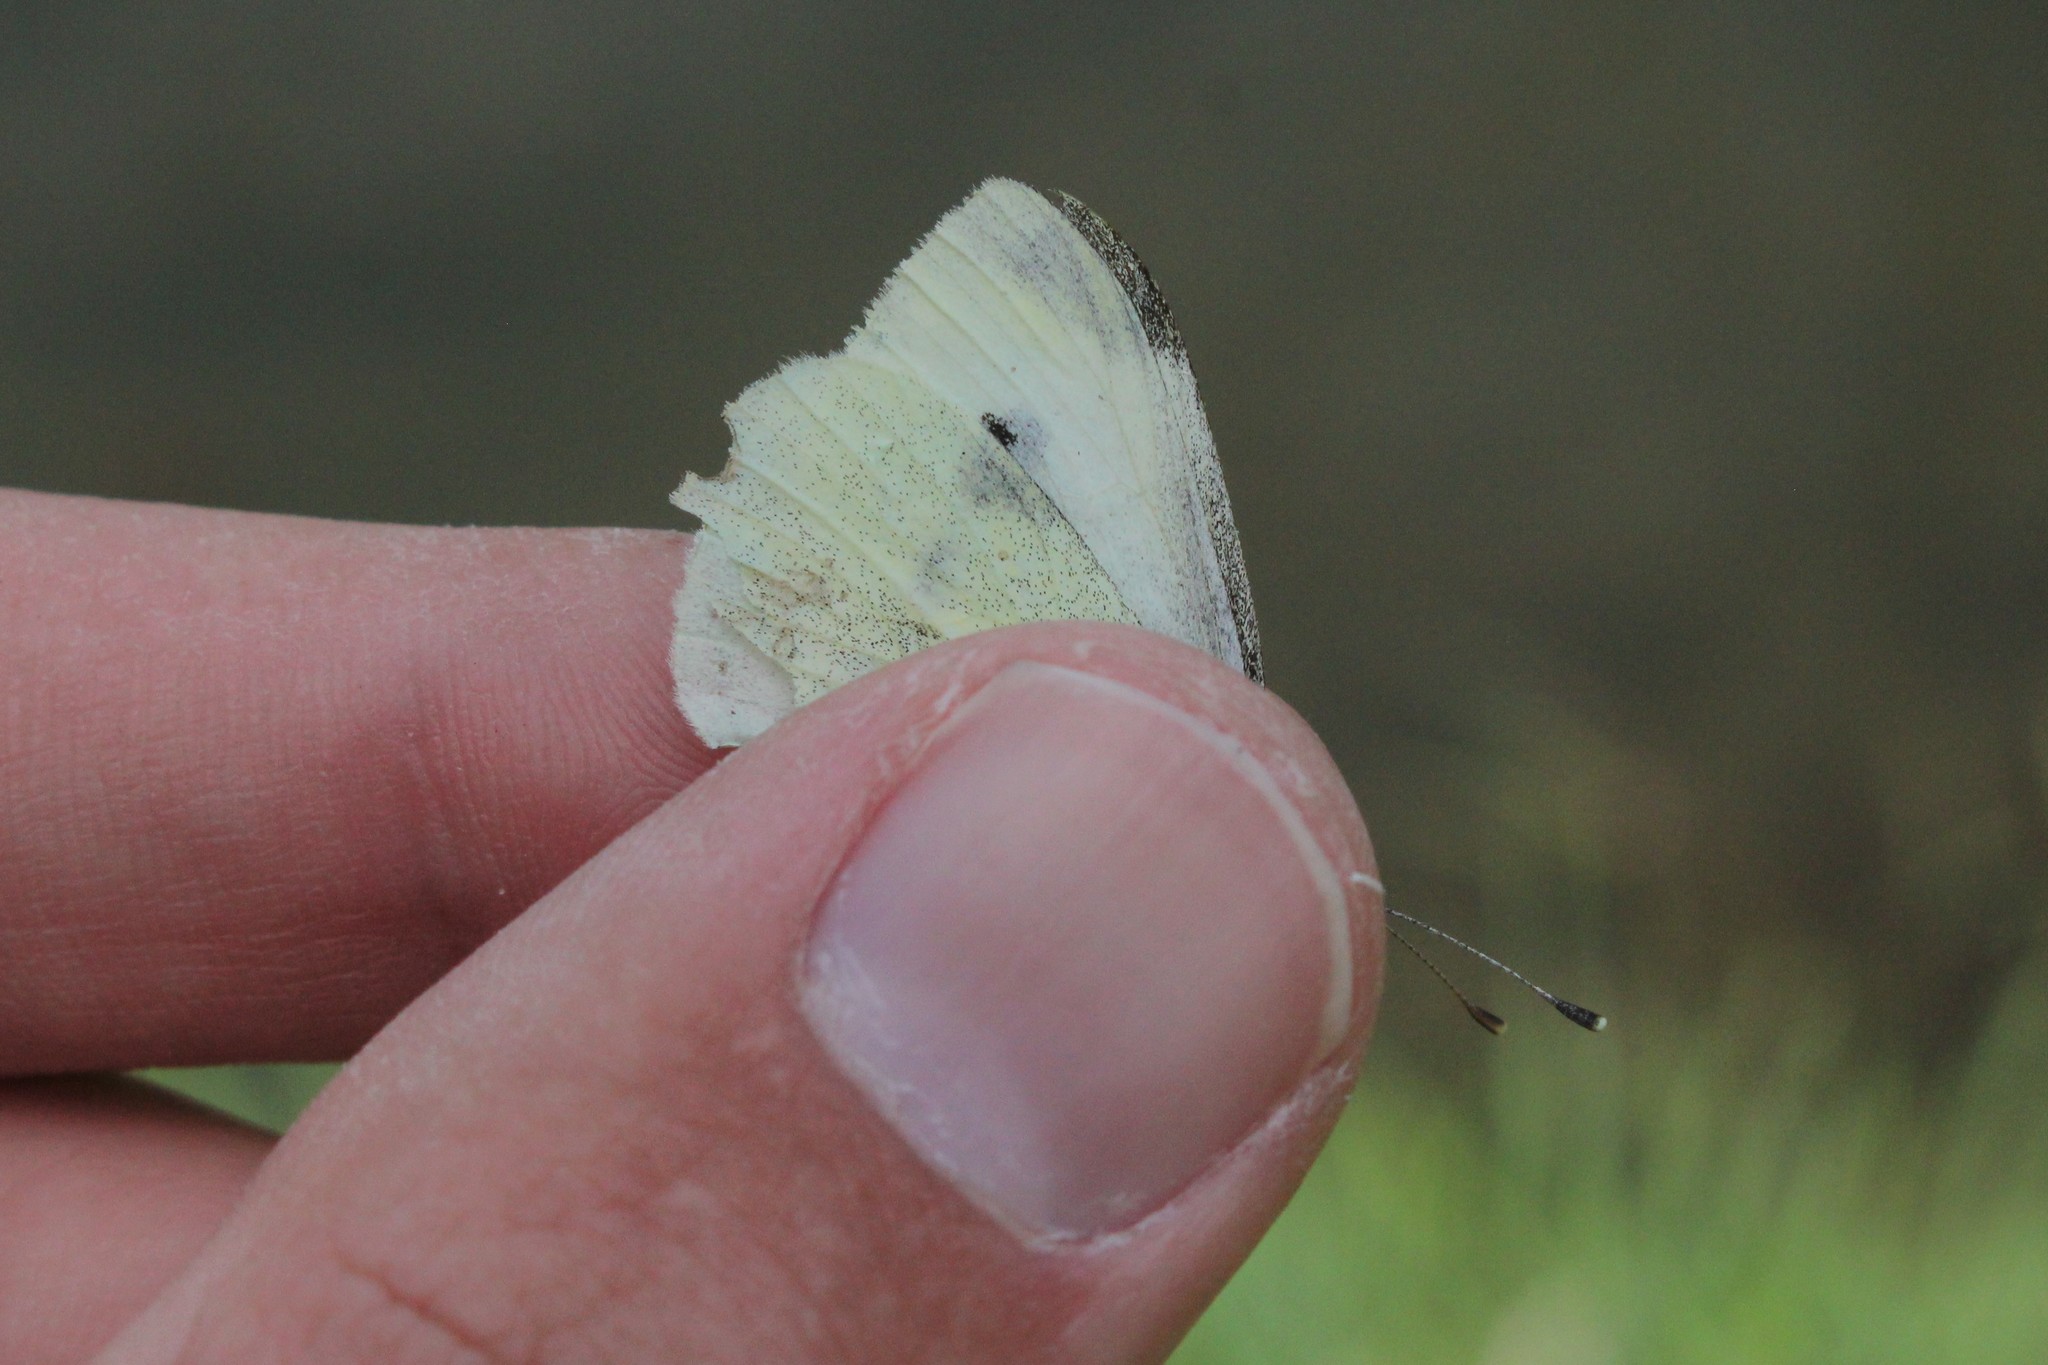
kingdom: Animalia
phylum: Arthropoda
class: Insecta
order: Lepidoptera
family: Pieridae
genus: Pieris
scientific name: Pieris rapae
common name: Small white
